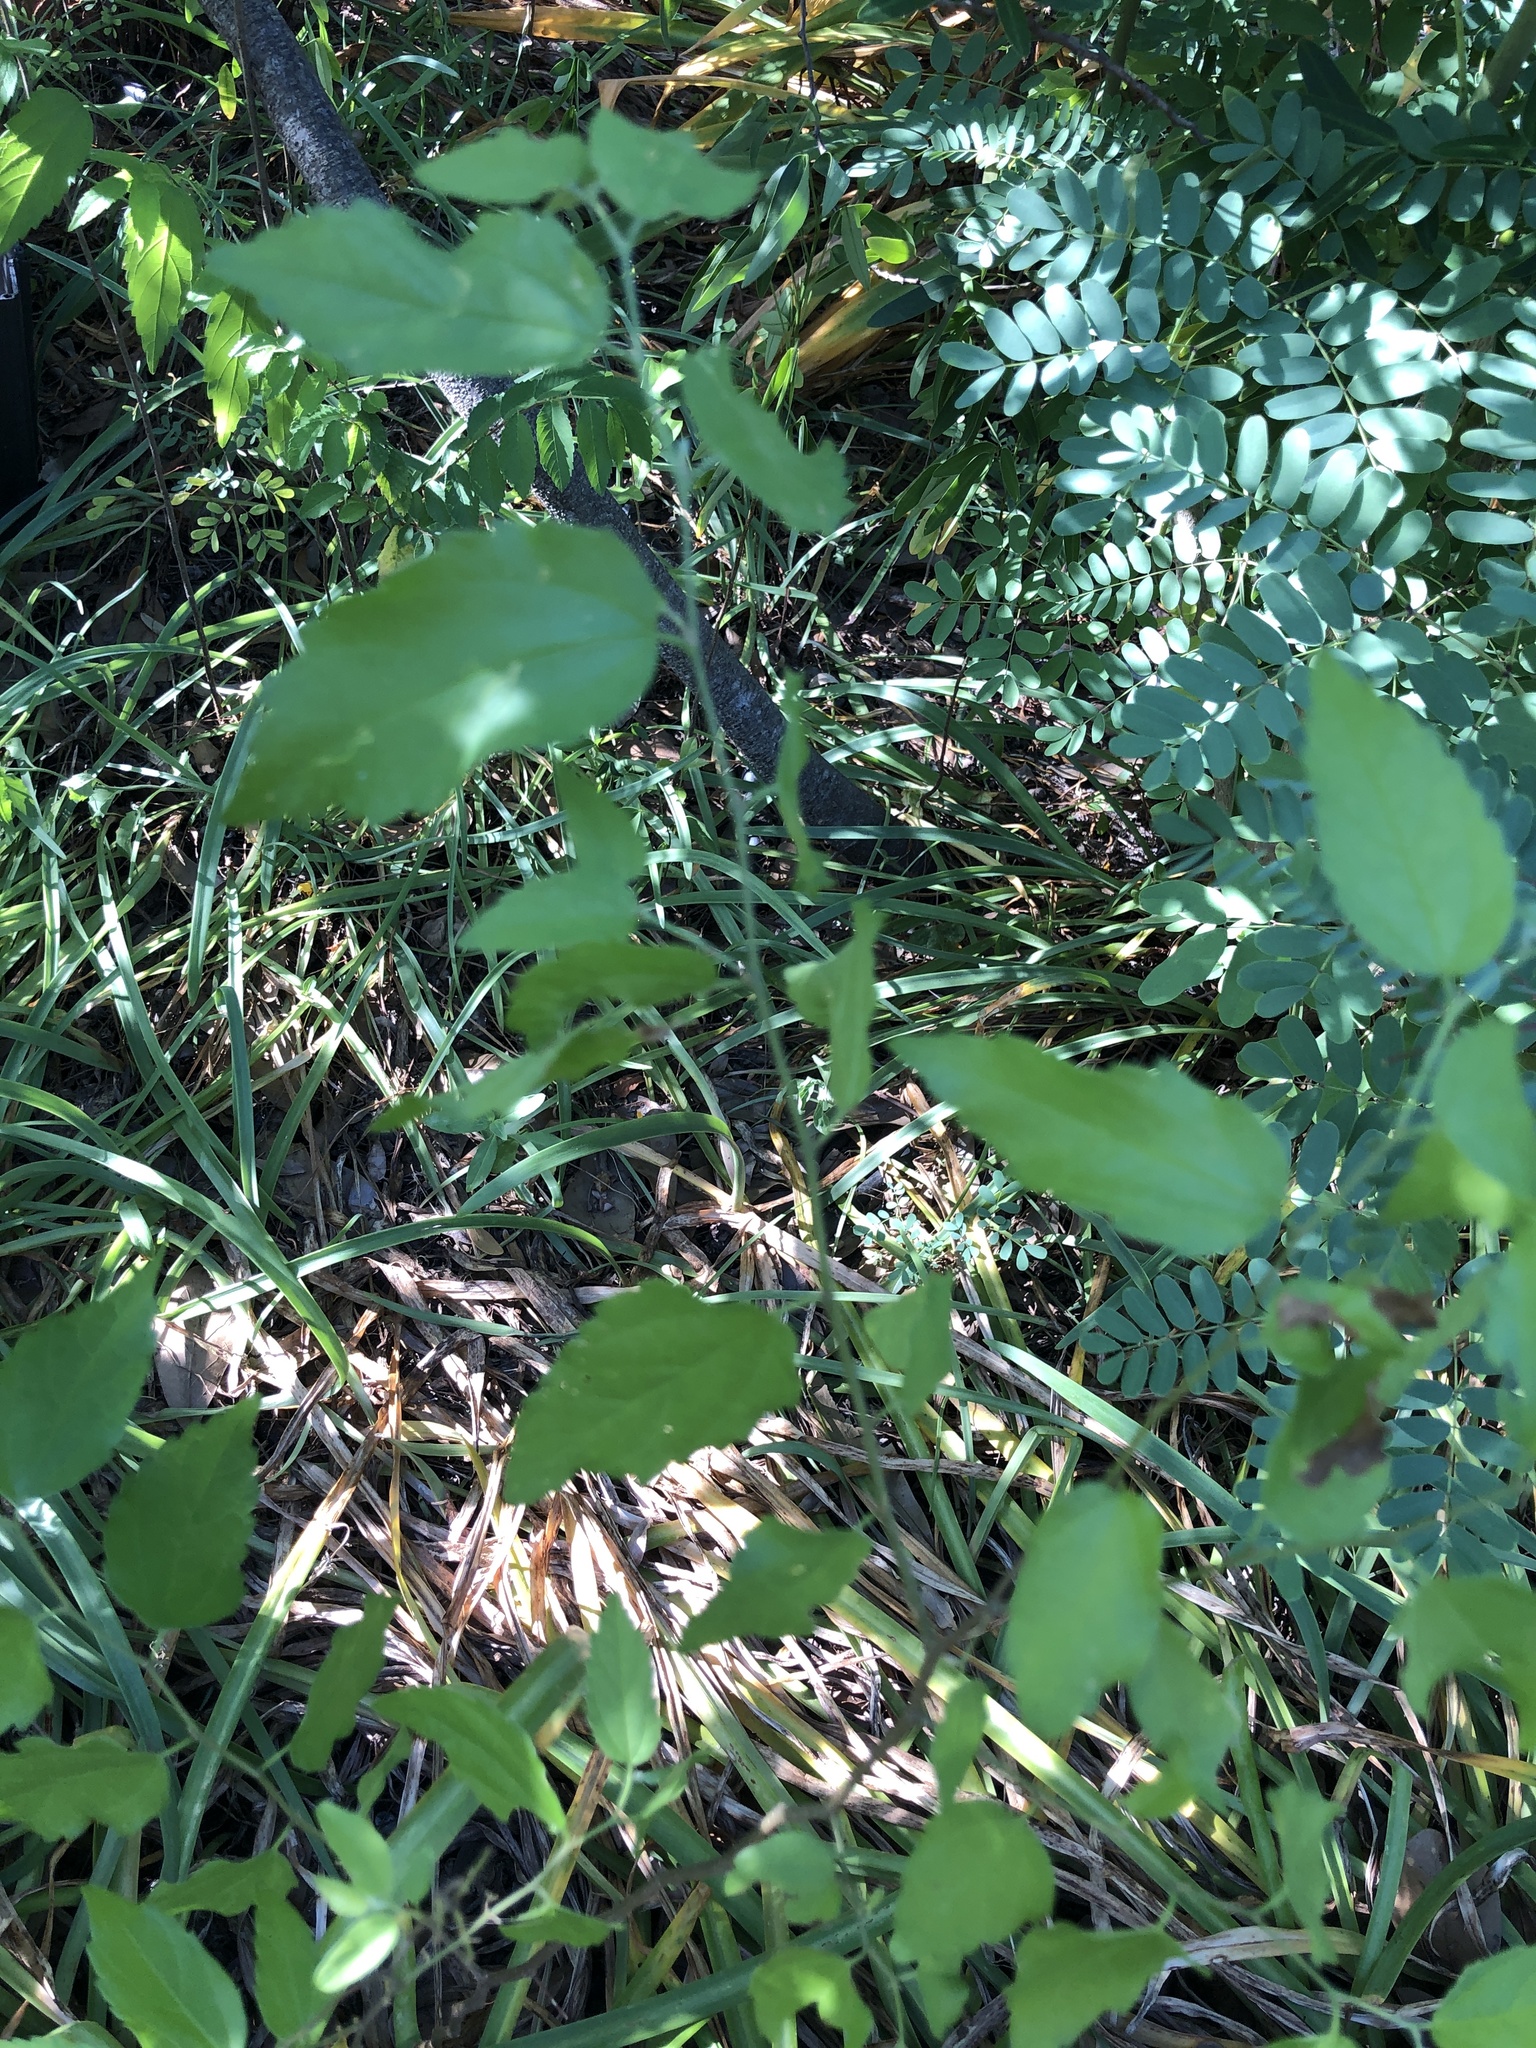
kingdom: Plantae
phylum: Tracheophyta
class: Magnoliopsida
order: Rosales
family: Cannabaceae
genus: Celtis
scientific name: Celtis laevigata
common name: Sugarberry
